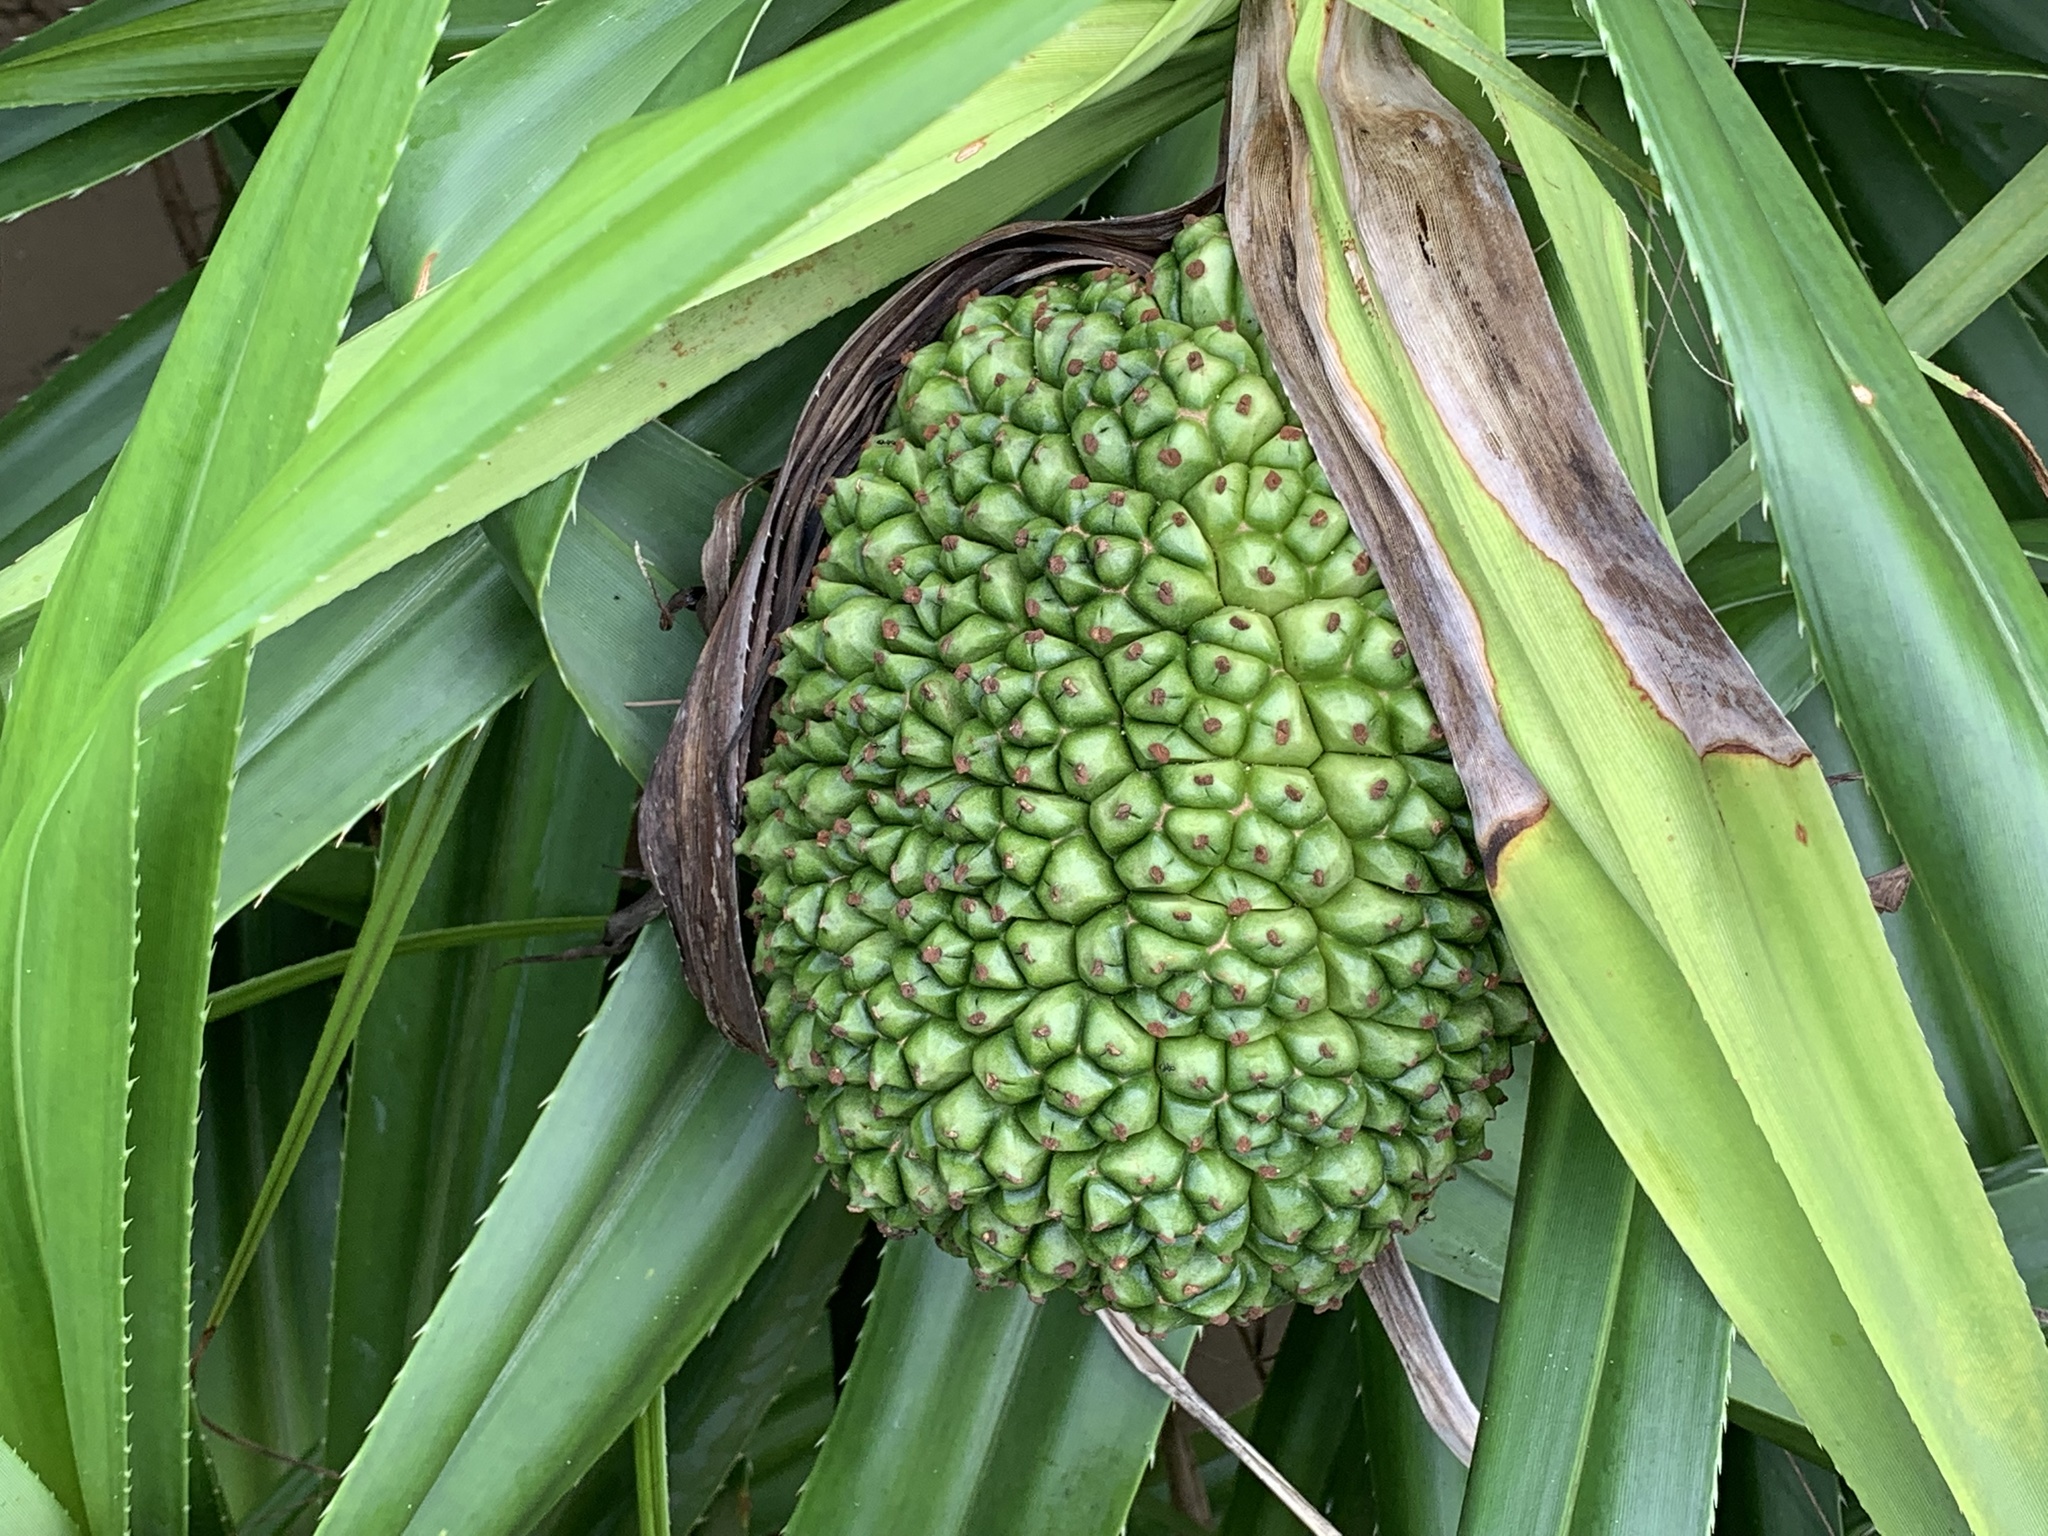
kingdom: Plantae
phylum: Tracheophyta
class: Liliopsida
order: Pandanales
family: Pandanaceae
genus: Pandanus
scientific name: Pandanus odorifer
